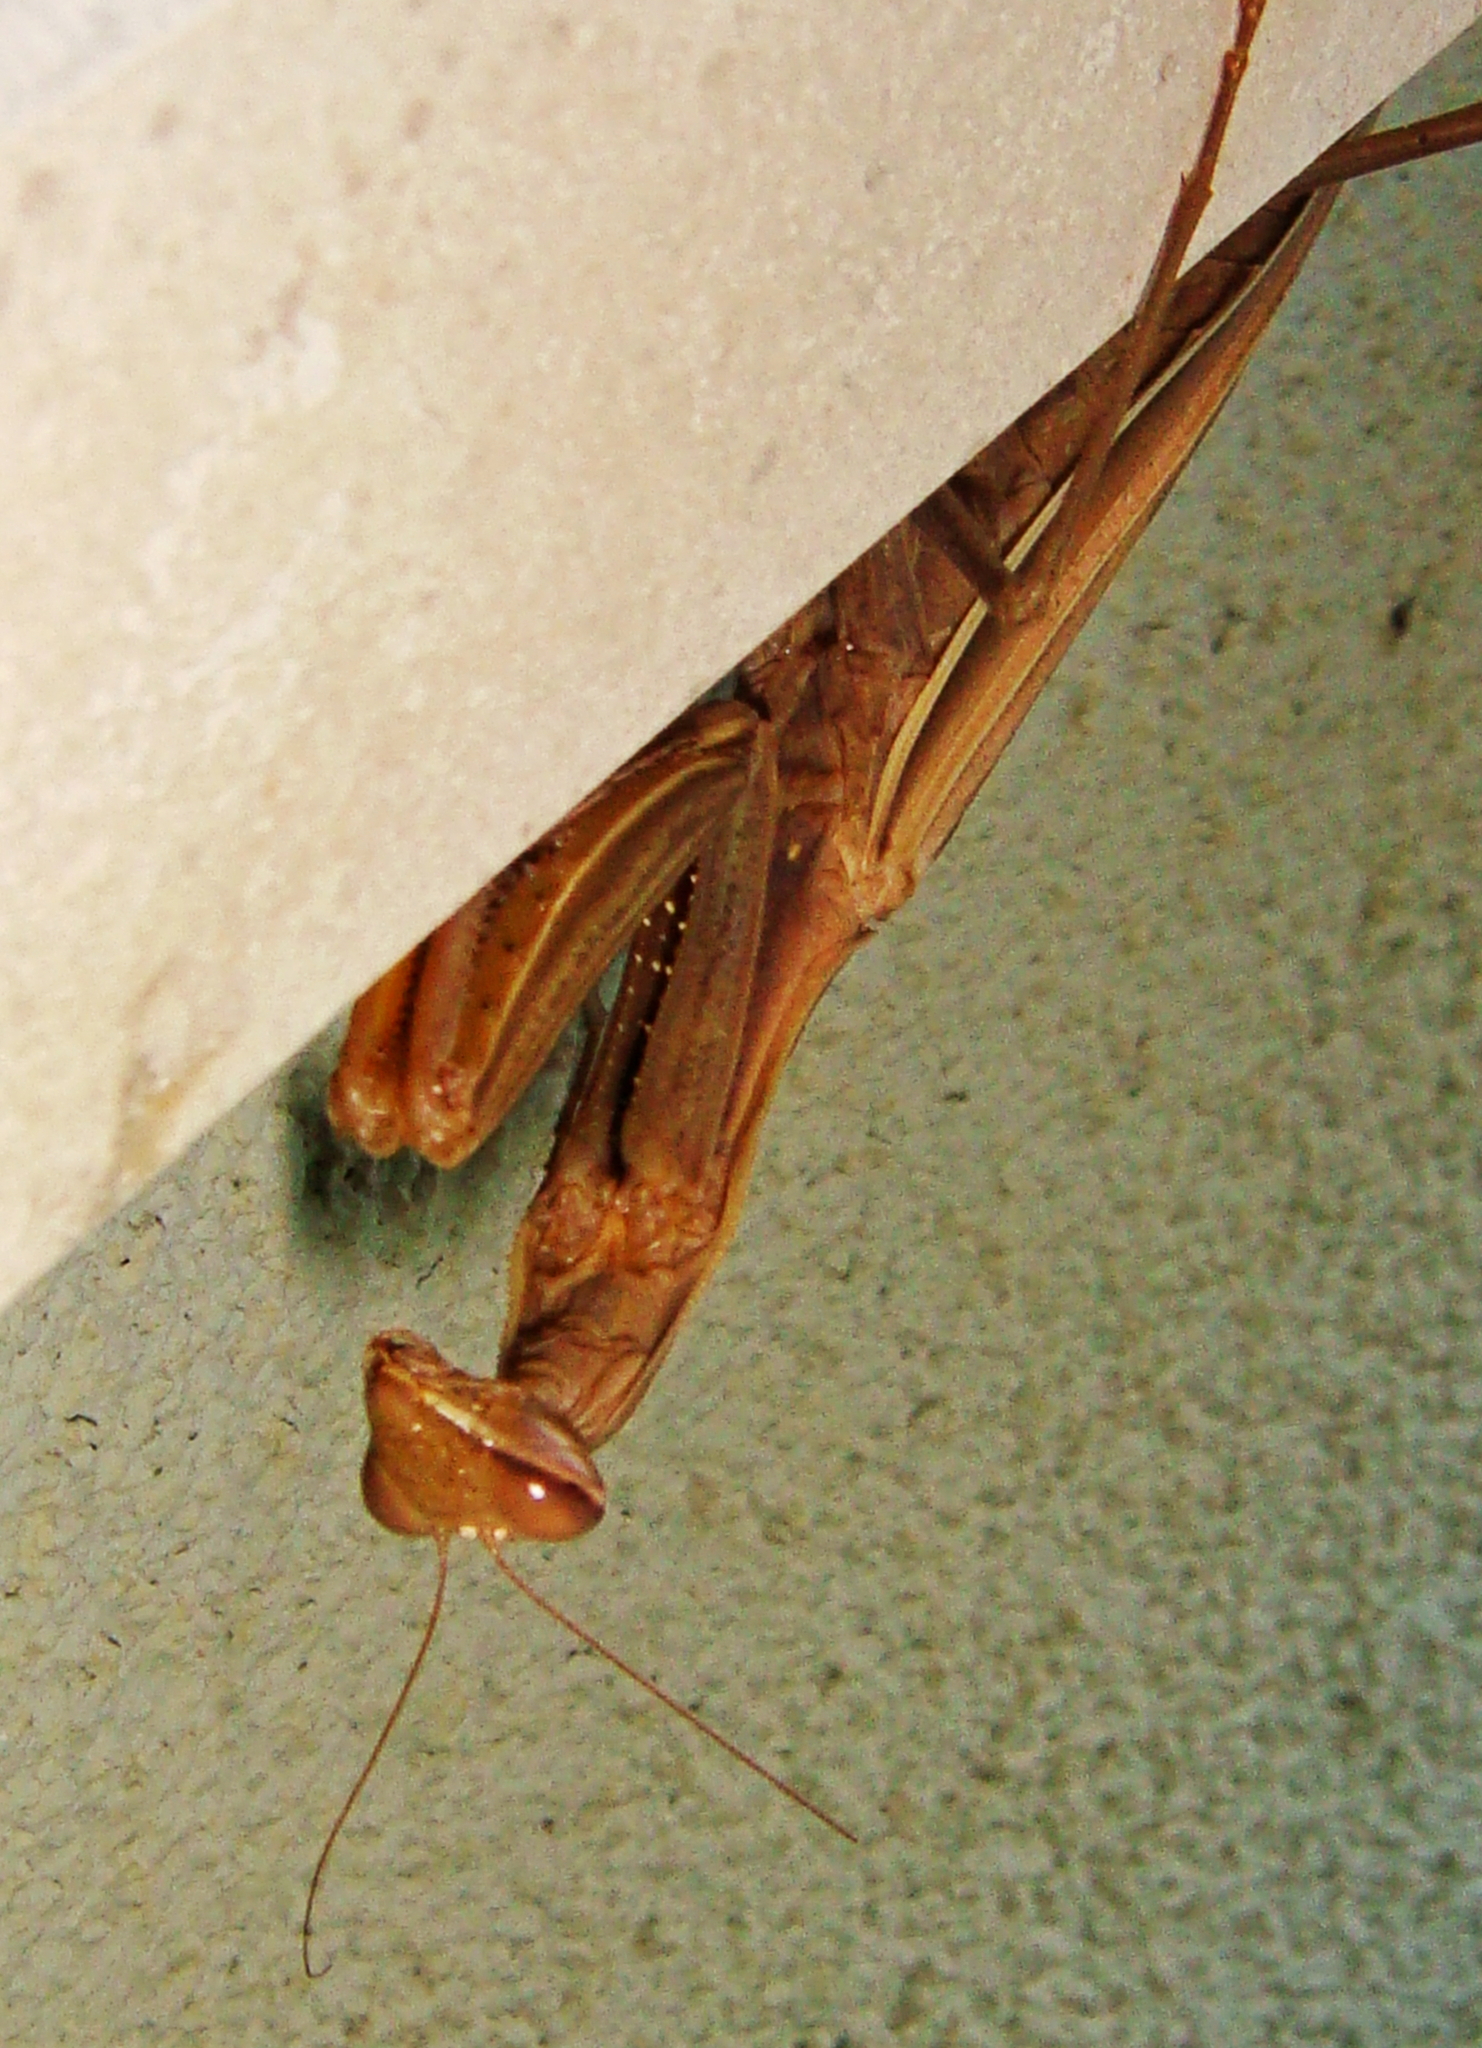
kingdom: Animalia
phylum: Arthropoda
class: Insecta
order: Mantodea
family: Mantidae
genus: Mantis
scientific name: Mantis religiosa
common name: Praying mantis
